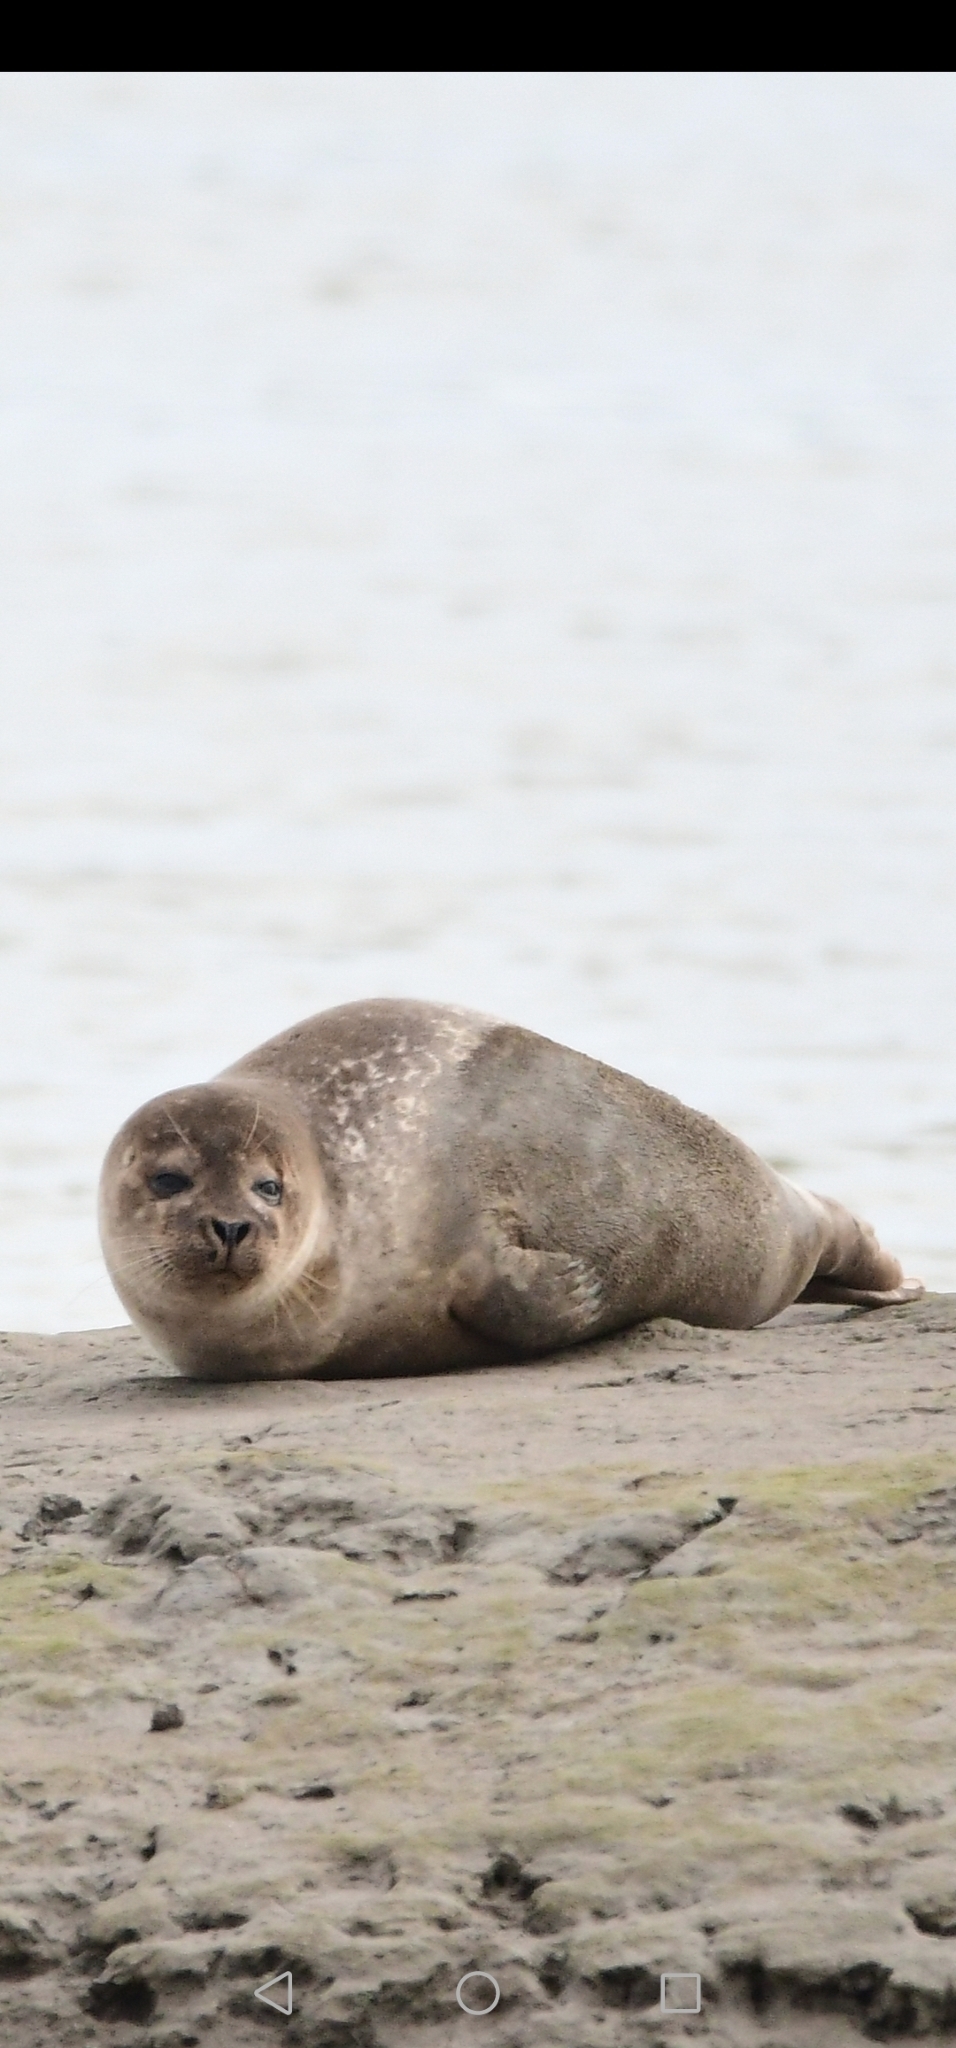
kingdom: Animalia
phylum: Chordata
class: Mammalia
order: Carnivora
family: Phocidae
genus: Phoca
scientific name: Phoca vitulina
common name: Harbor seal
